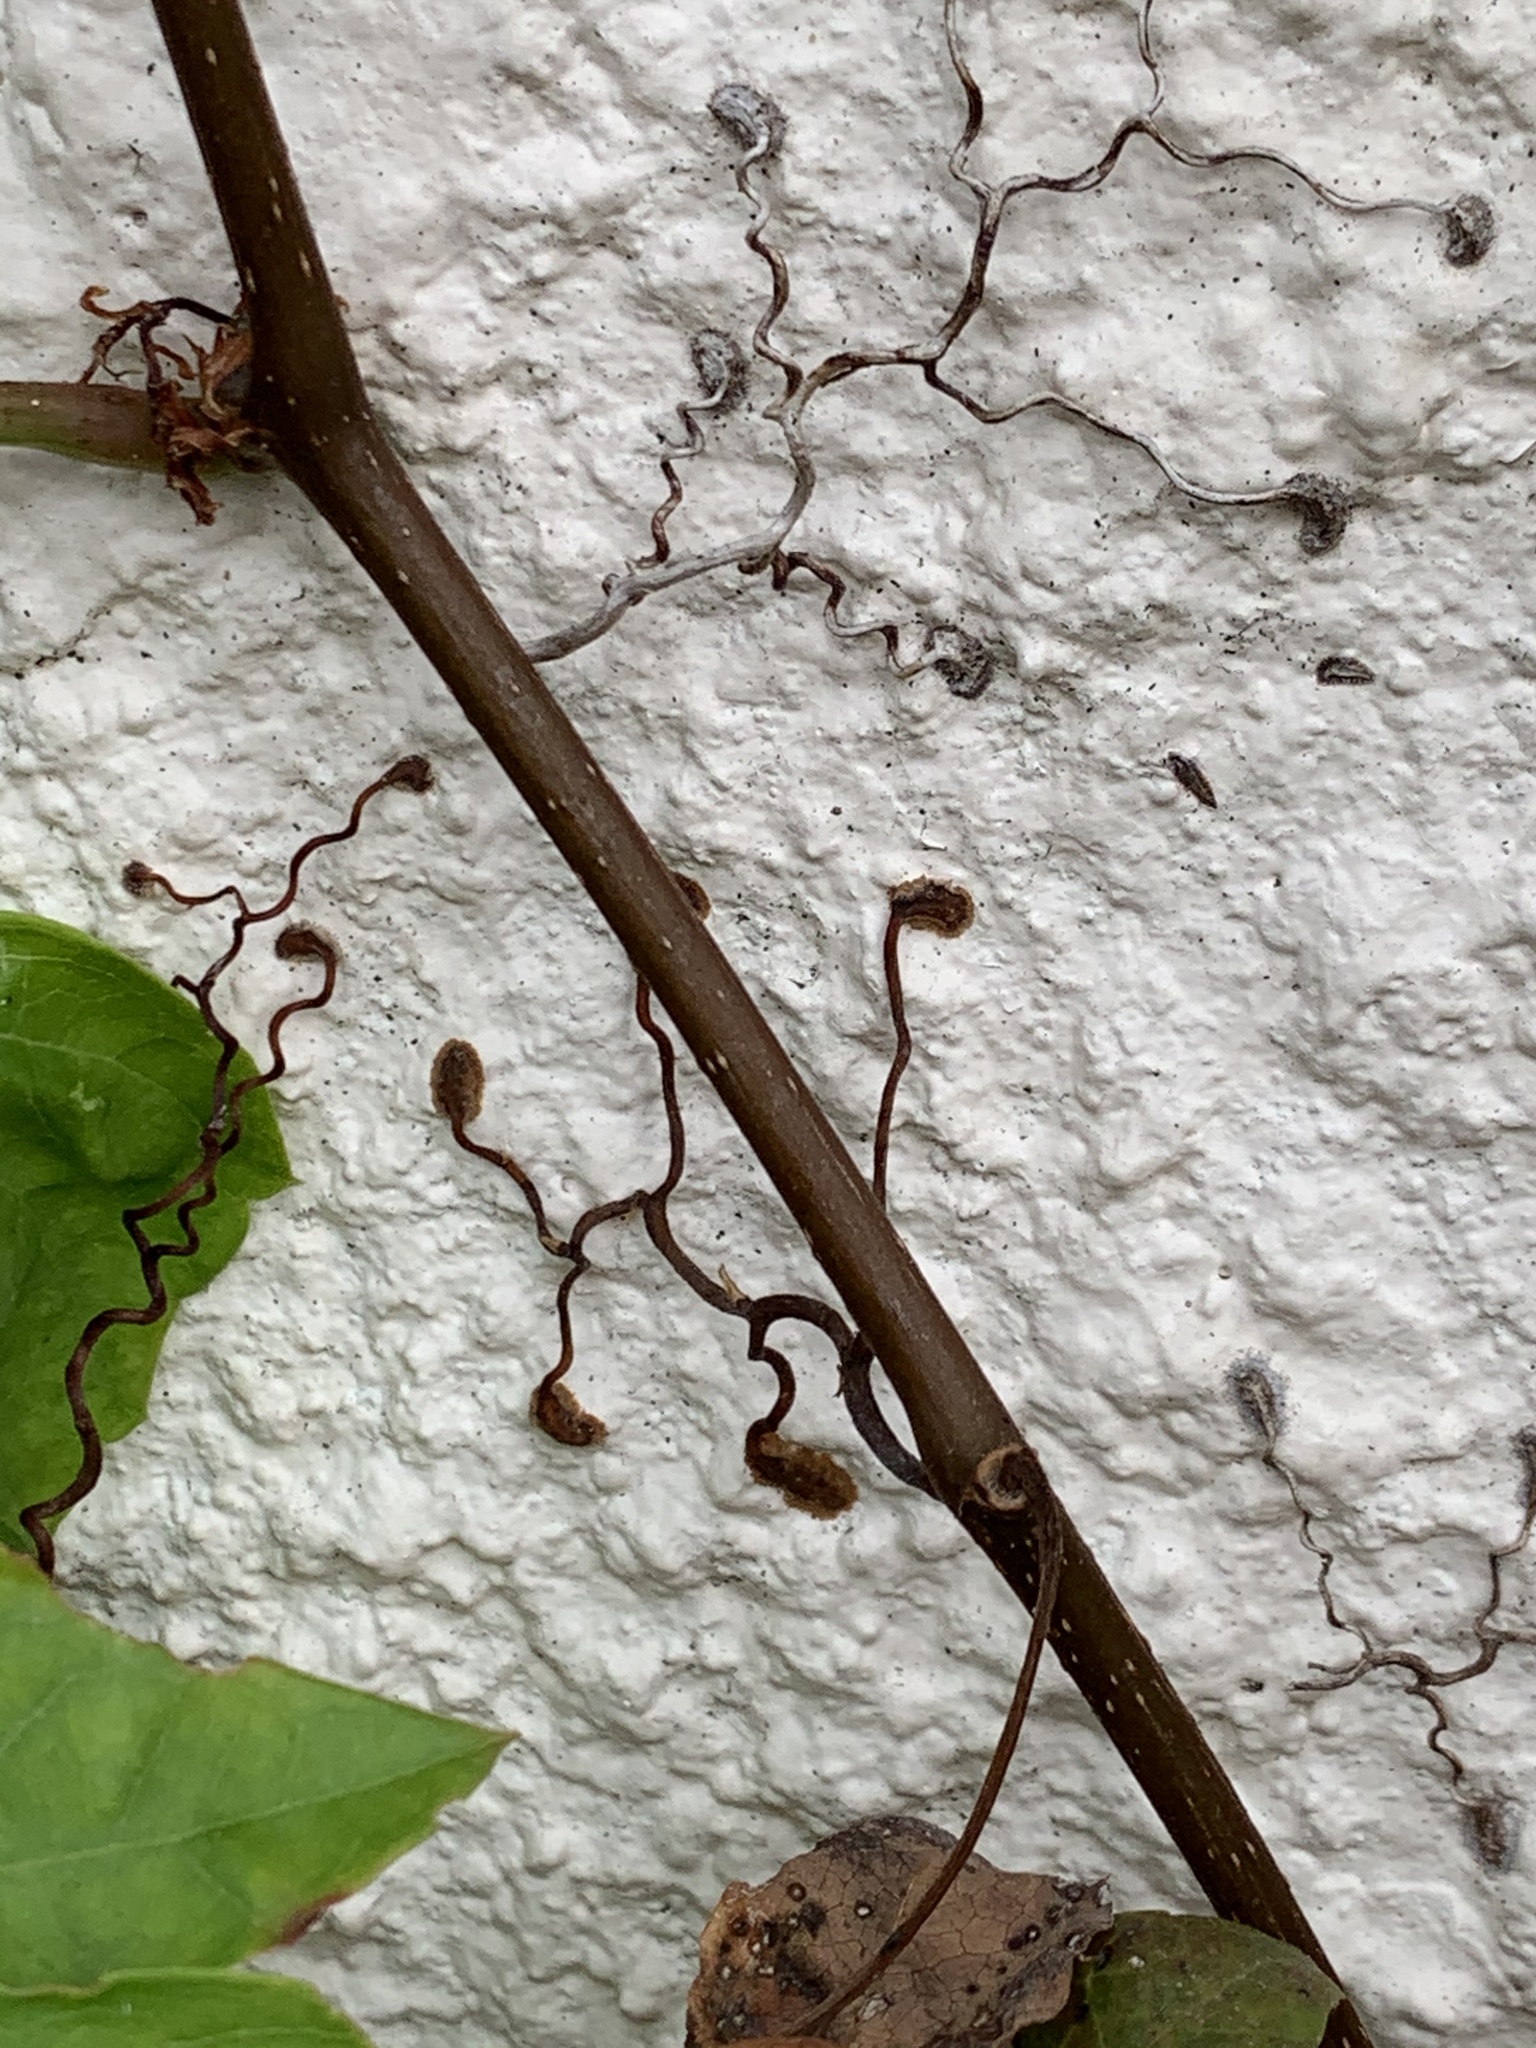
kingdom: Plantae
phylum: Tracheophyta
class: Magnoliopsida
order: Vitales
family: Vitaceae
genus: Parthenocissus
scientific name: Parthenocissus quinquefolia
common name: Virginia-creeper
